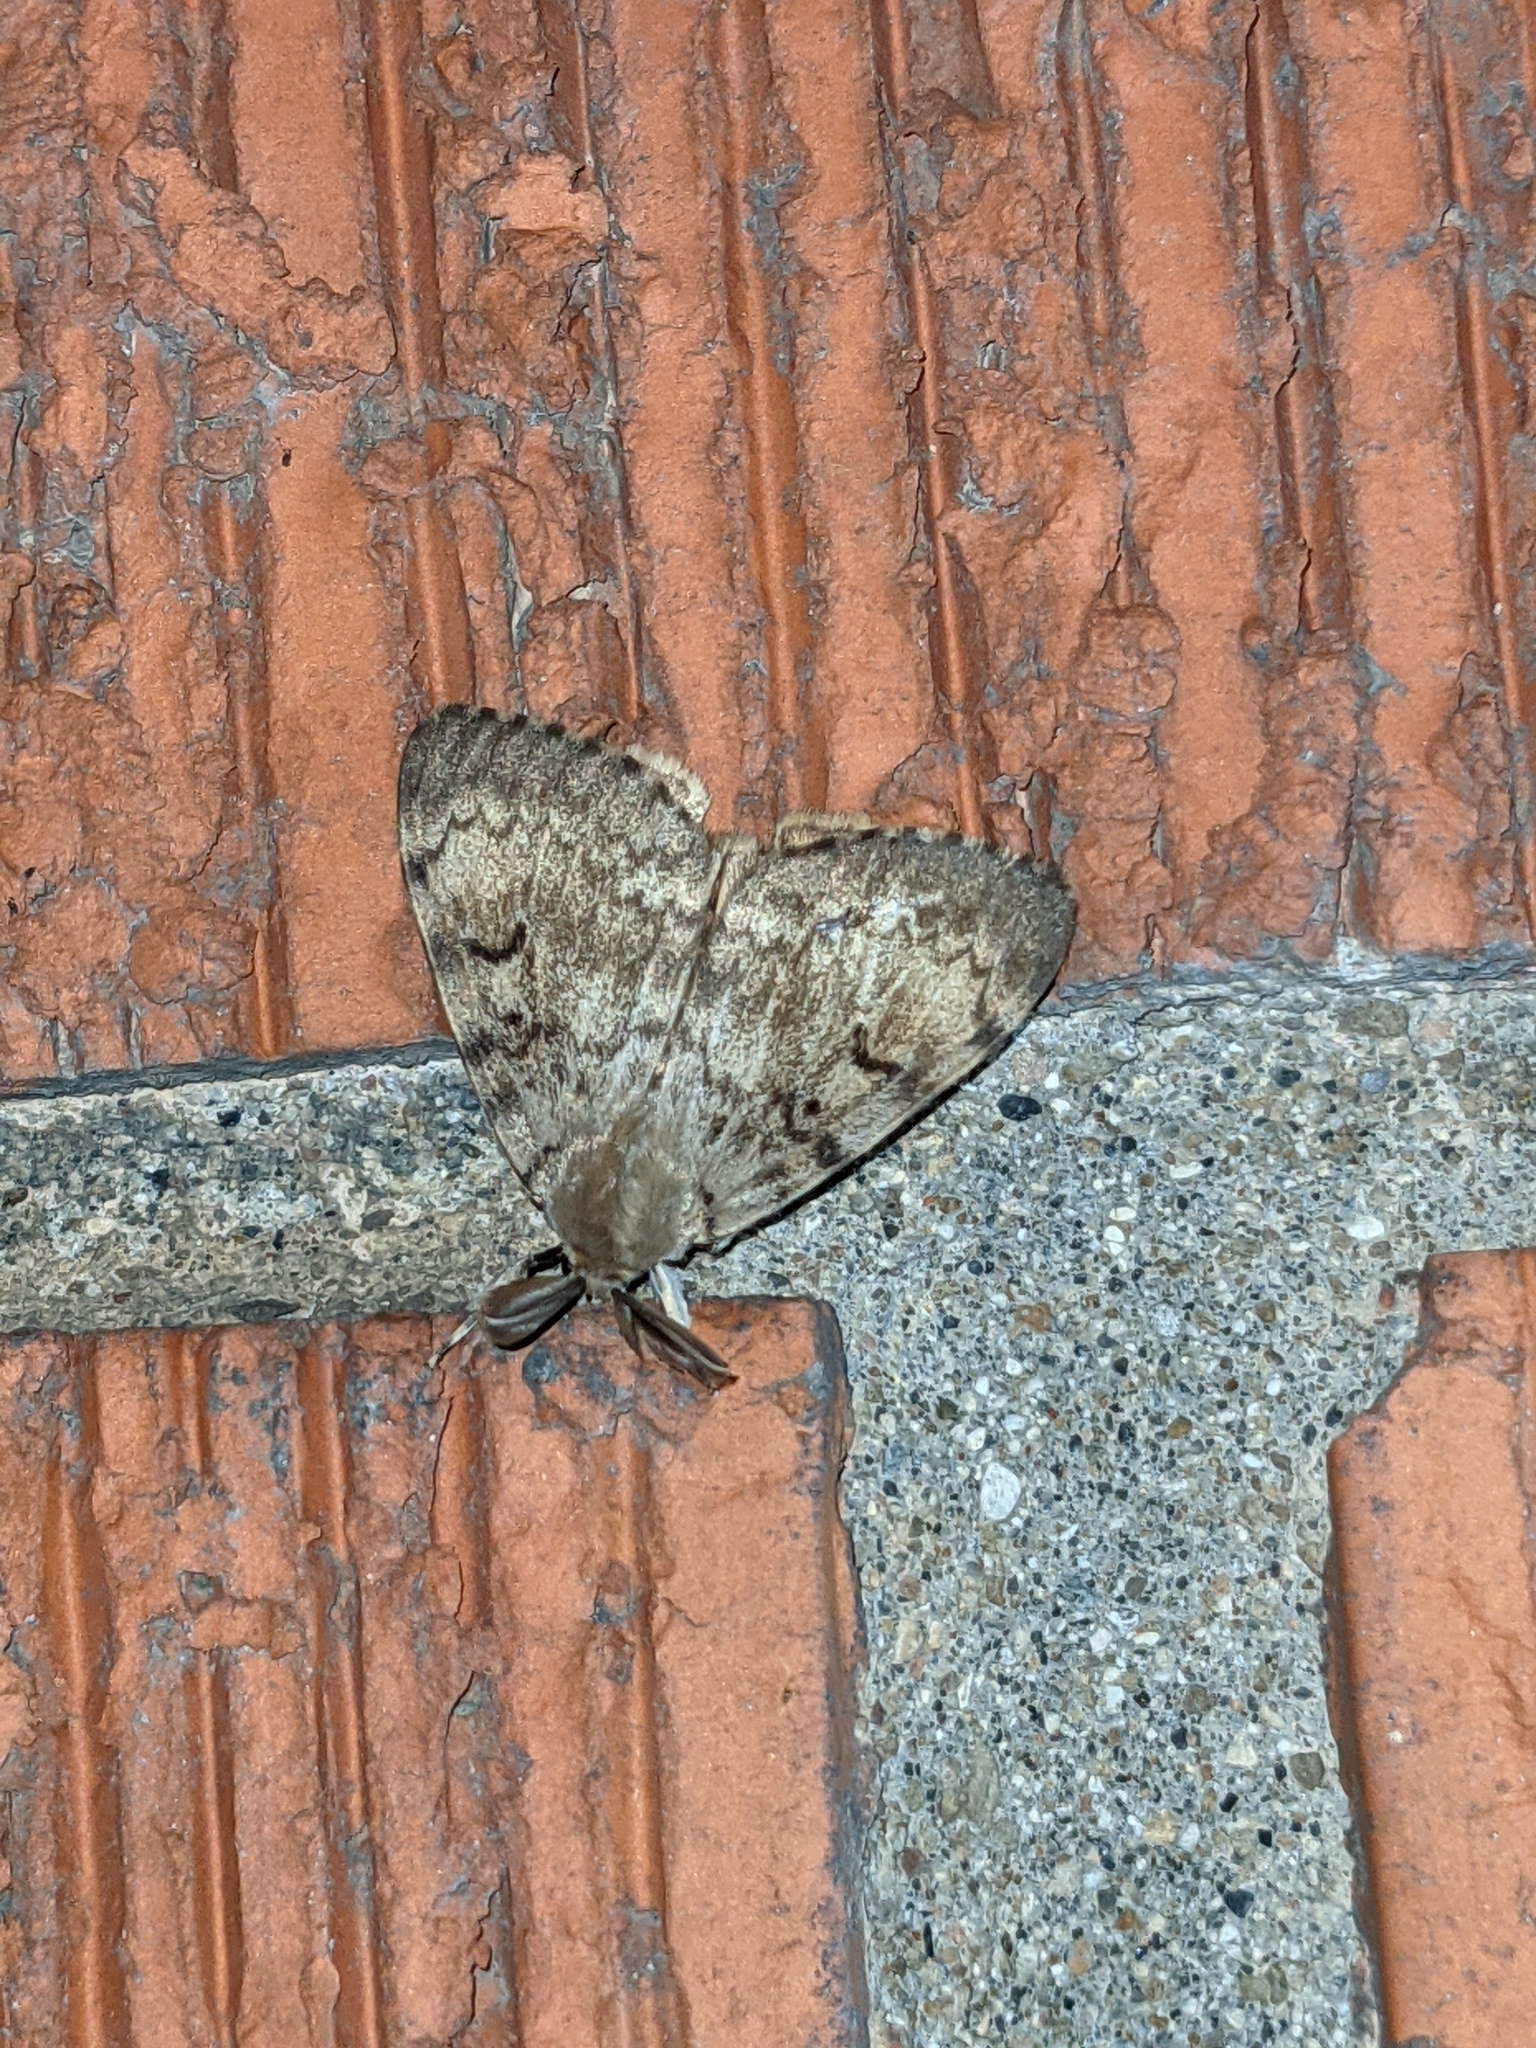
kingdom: Animalia
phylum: Arthropoda
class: Insecta
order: Lepidoptera
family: Erebidae
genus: Lymantria
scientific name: Lymantria dispar
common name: Gypsy moth
